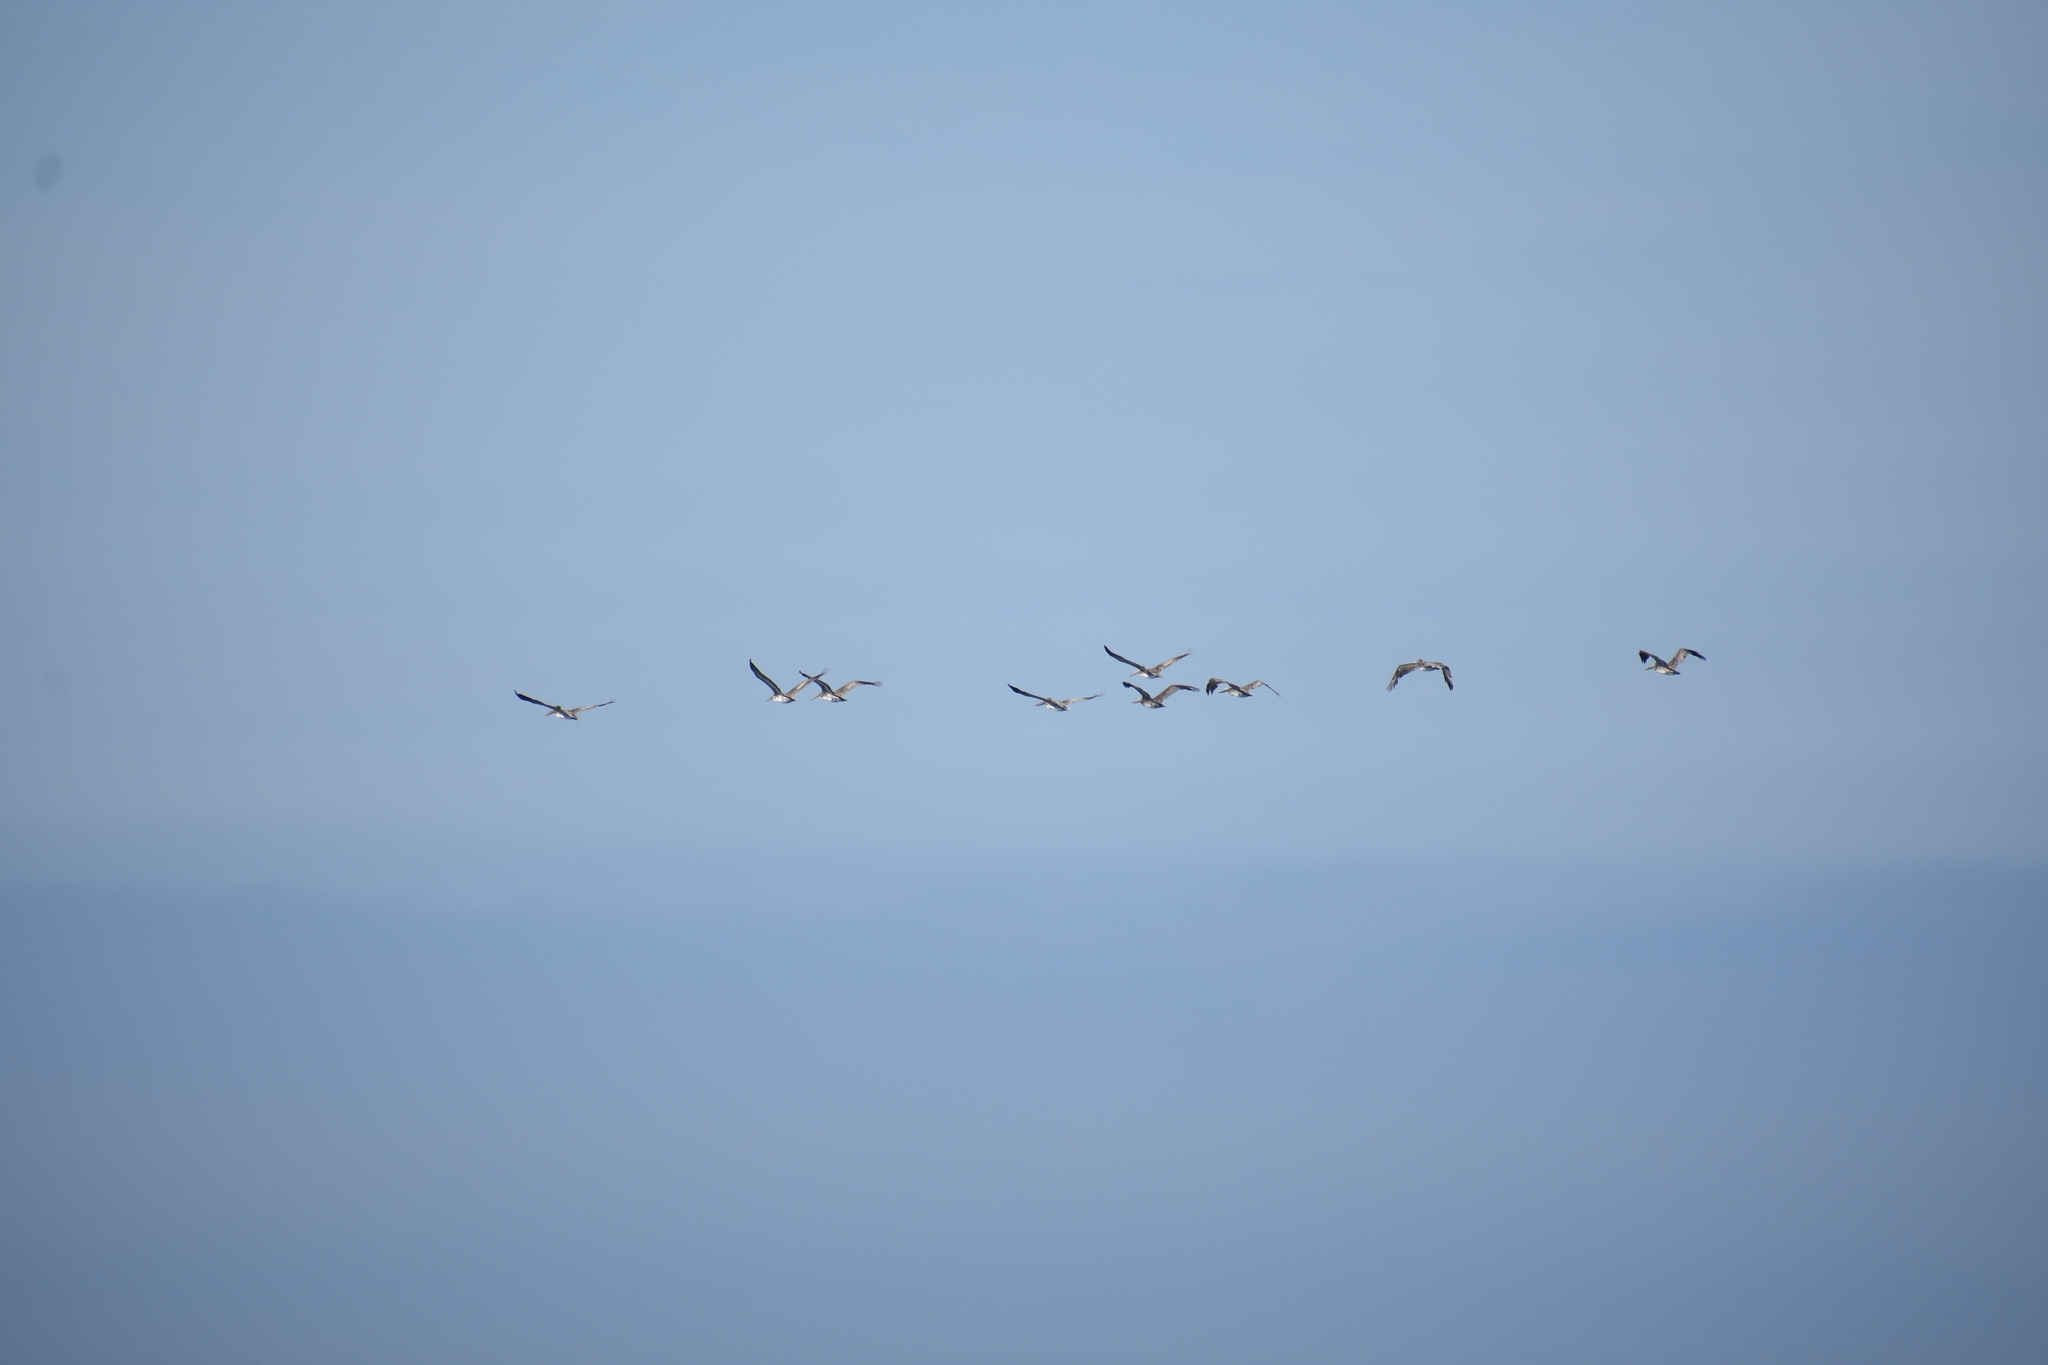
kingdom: Animalia
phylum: Chordata
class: Aves
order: Pelecaniformes
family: Pelecanidae
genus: Pelecanus
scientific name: Pelecanus occidentalis
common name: Brown pelican
